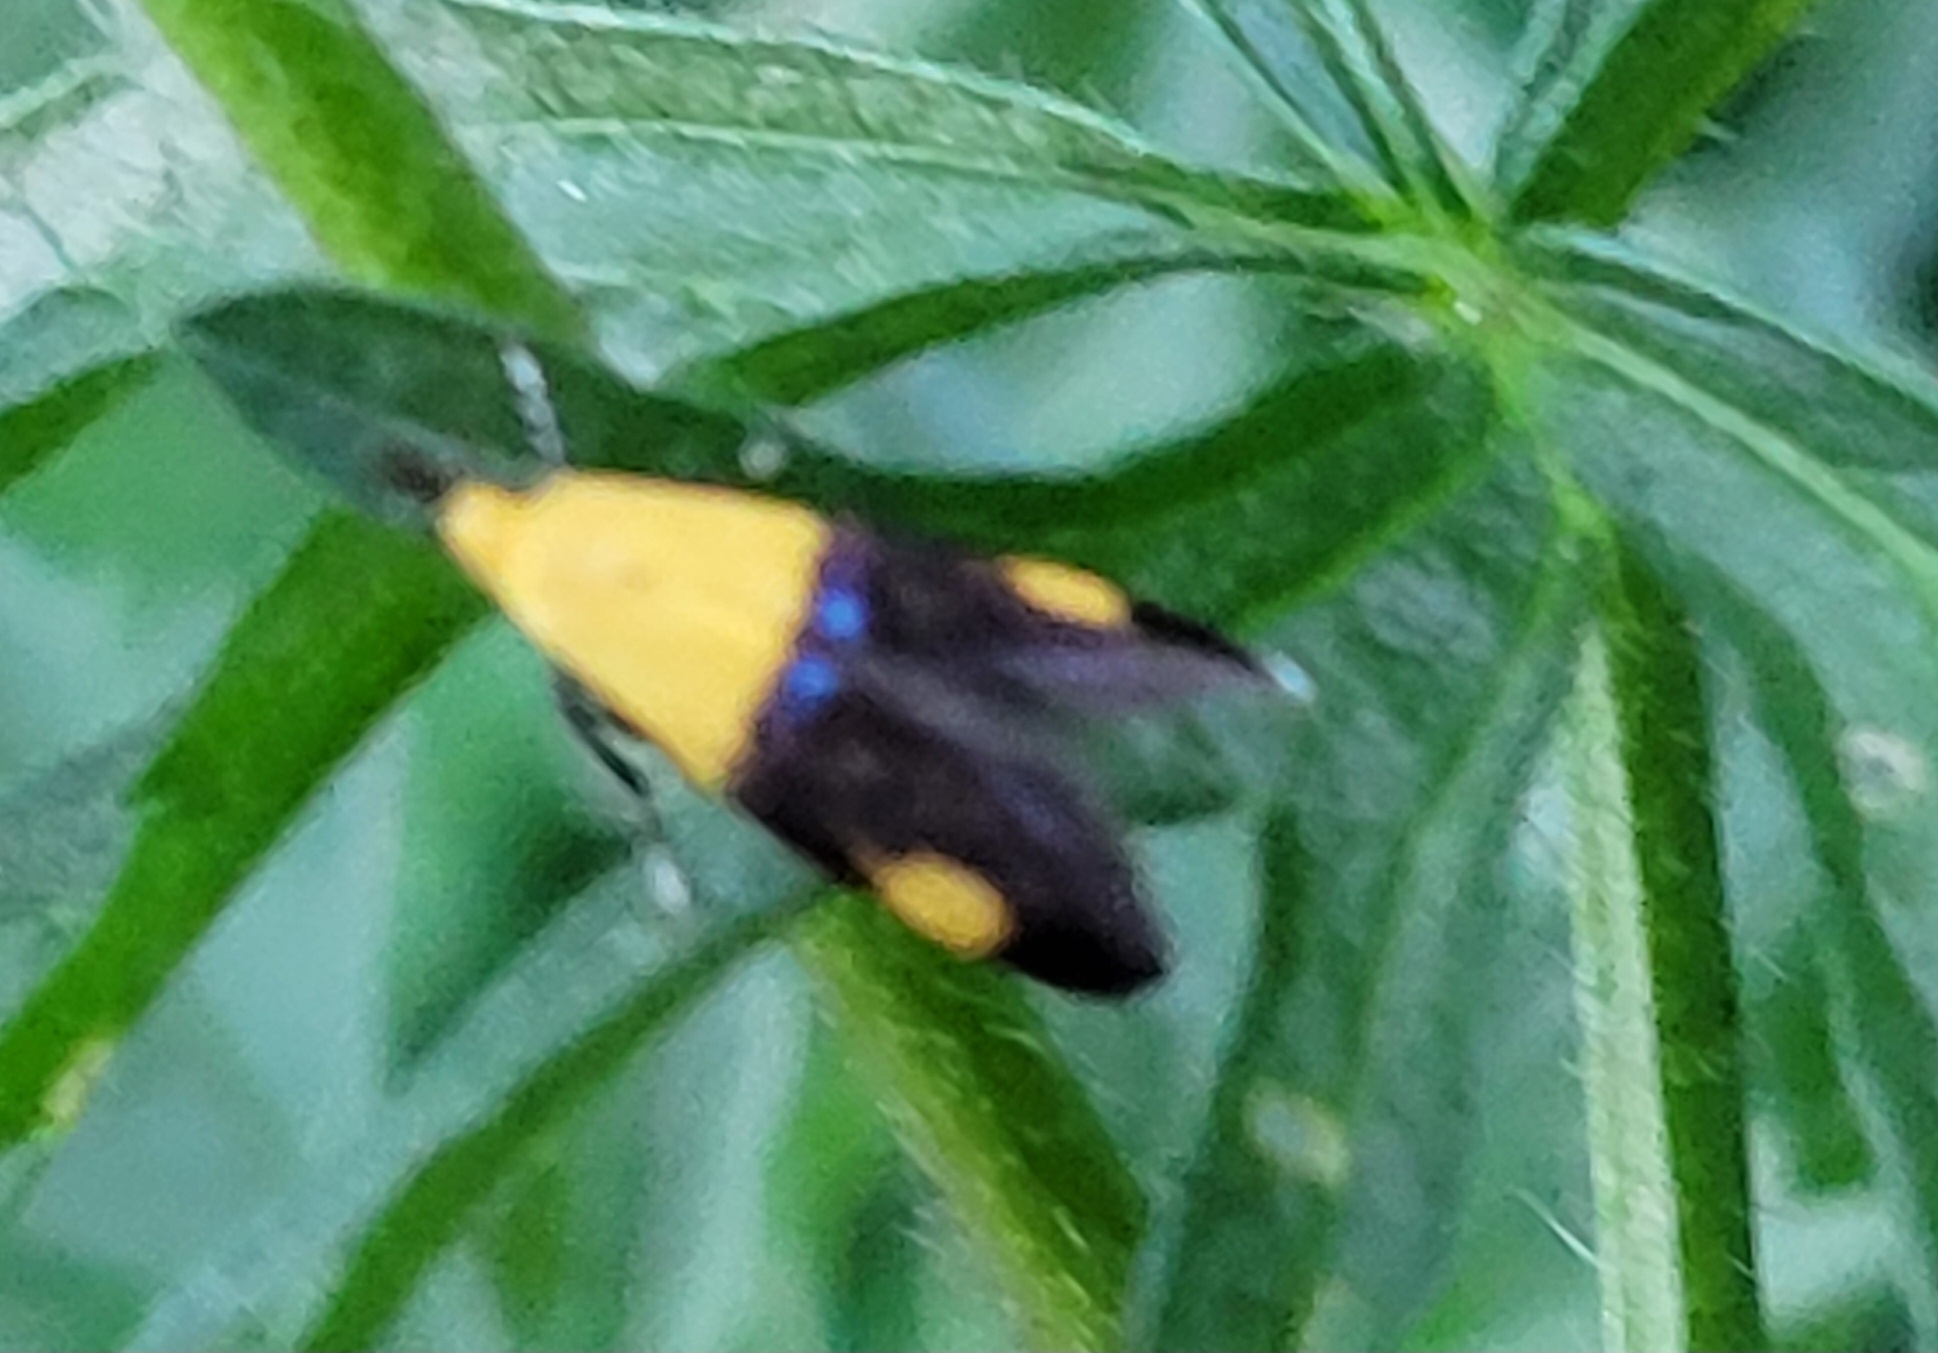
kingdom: Animalia
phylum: Arthropoda
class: Insecta
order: Lepidoptera
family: Oecophoridae
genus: Oecophora
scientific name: Oecophora bractella
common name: Gold-base tubic
